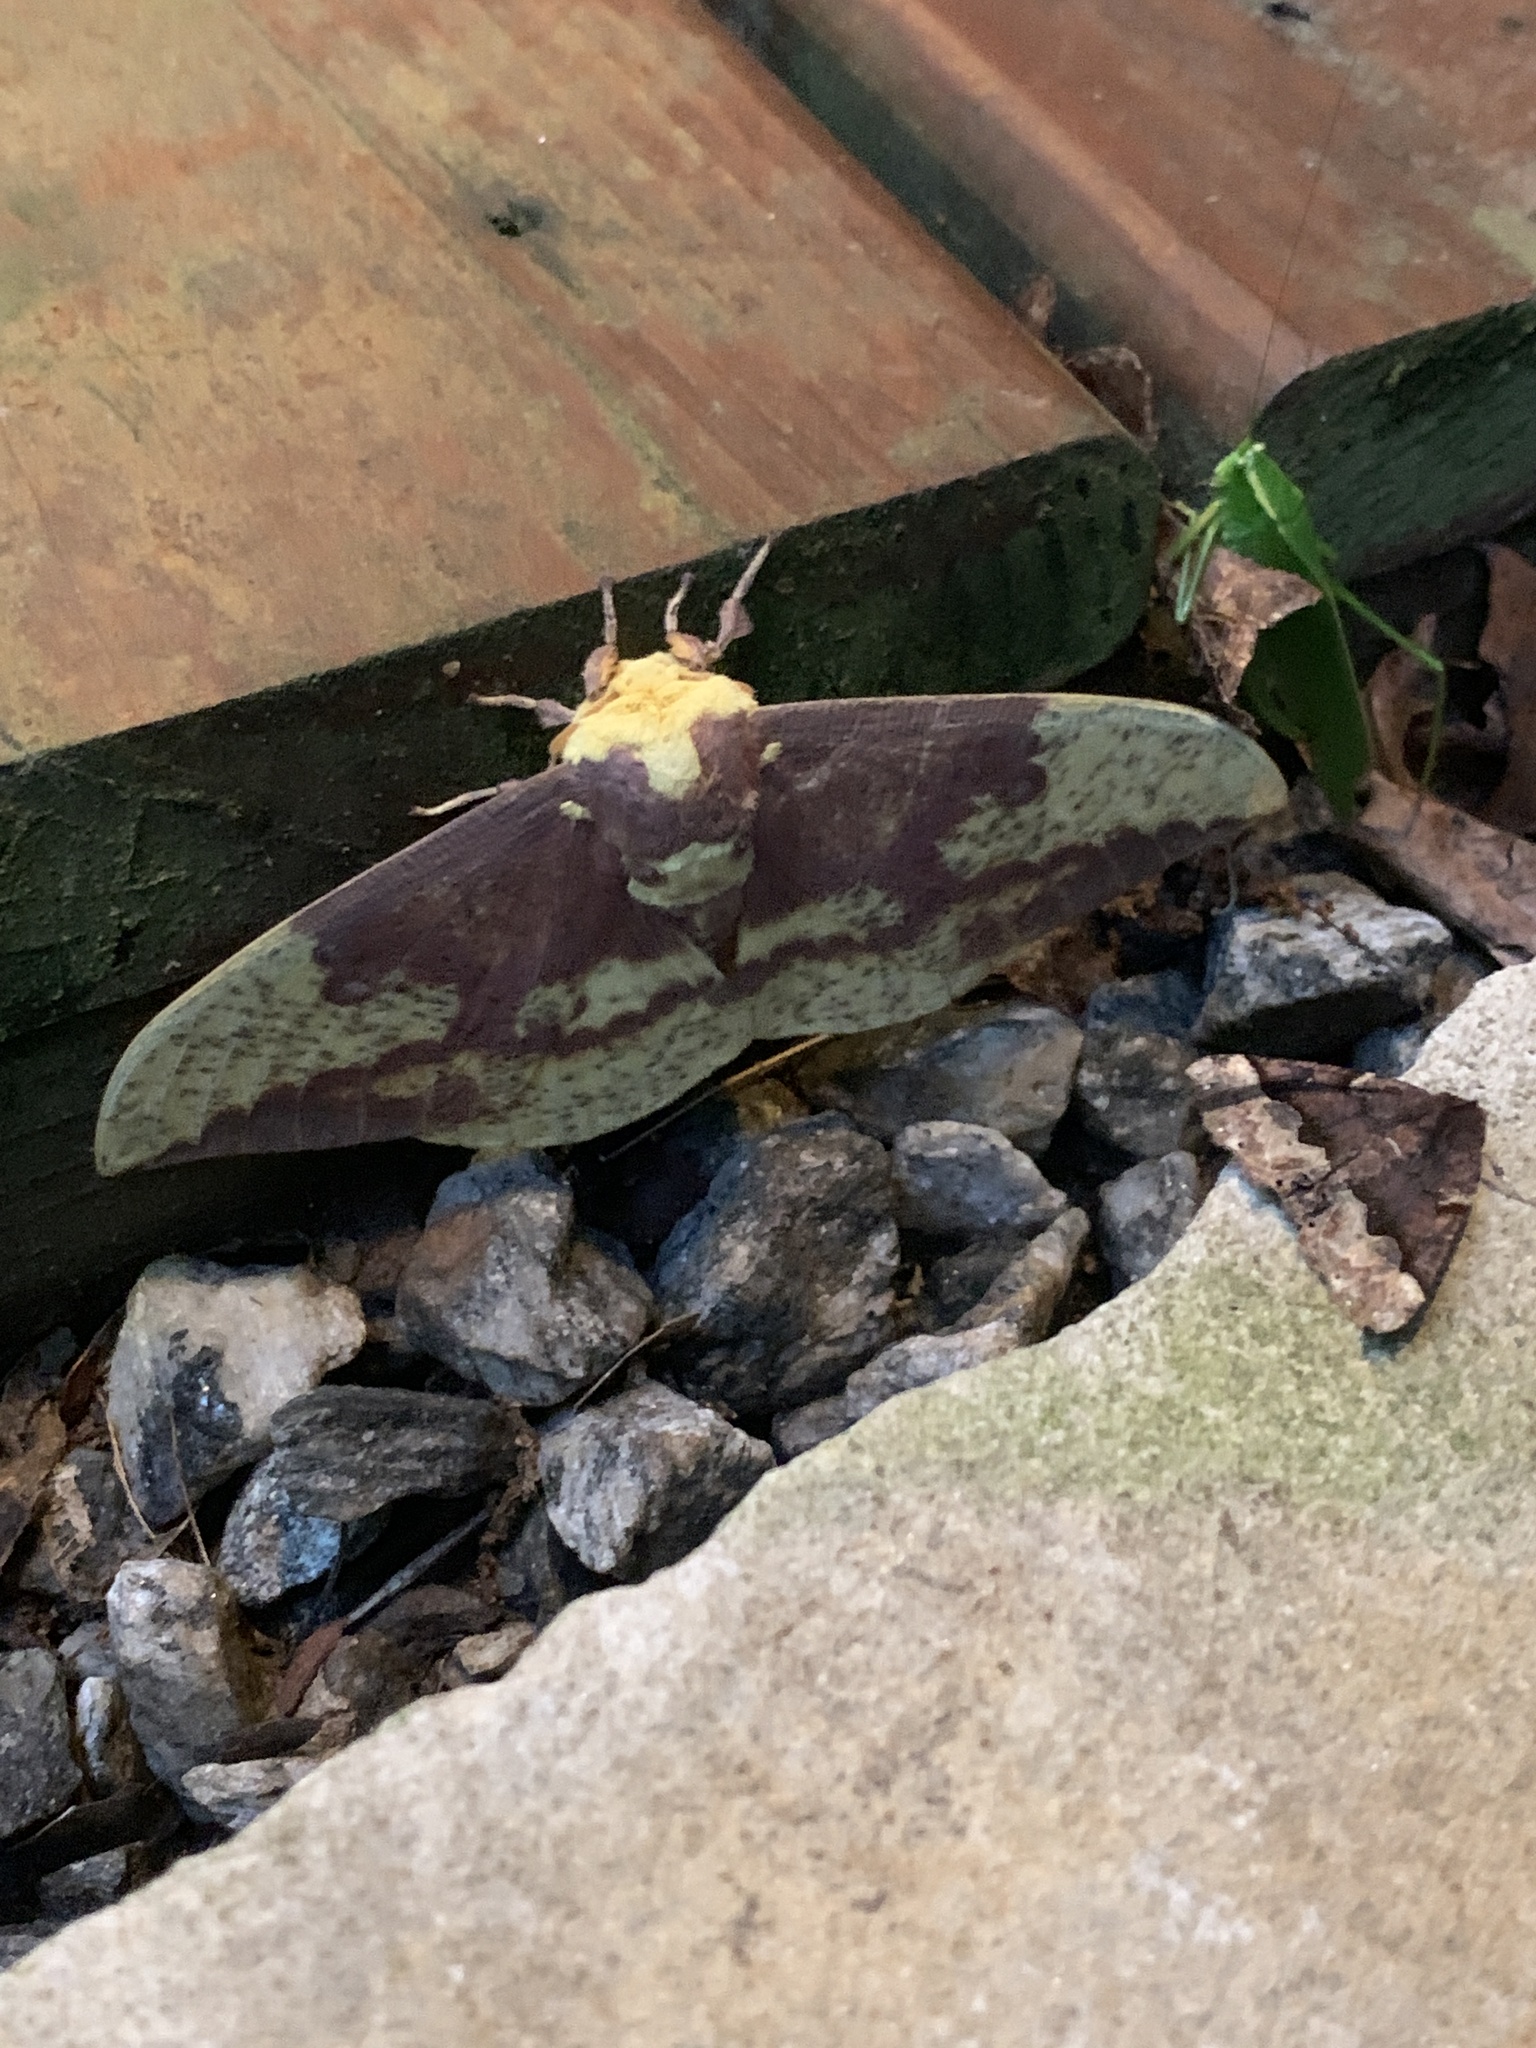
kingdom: Animalia
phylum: Arthropoda
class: Insecta
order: Lepidoptera
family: Saturniidae
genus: Eacles
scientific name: Eacles imperialis
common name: Imperial moth
